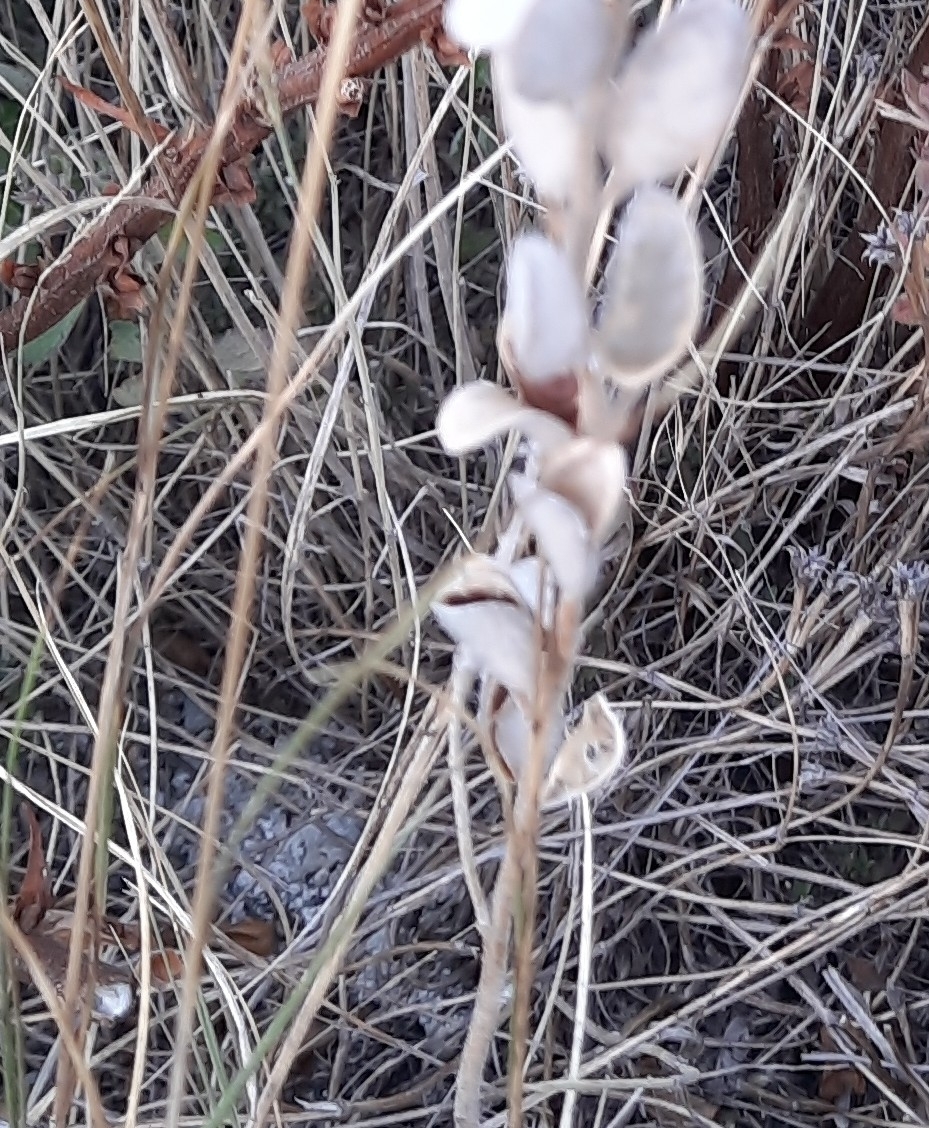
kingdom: Plantae
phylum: Tracheophyta
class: Magnoliopsida
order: Brassicales
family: Brassicaceae
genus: Fibigia
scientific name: Fibigia clypeata
